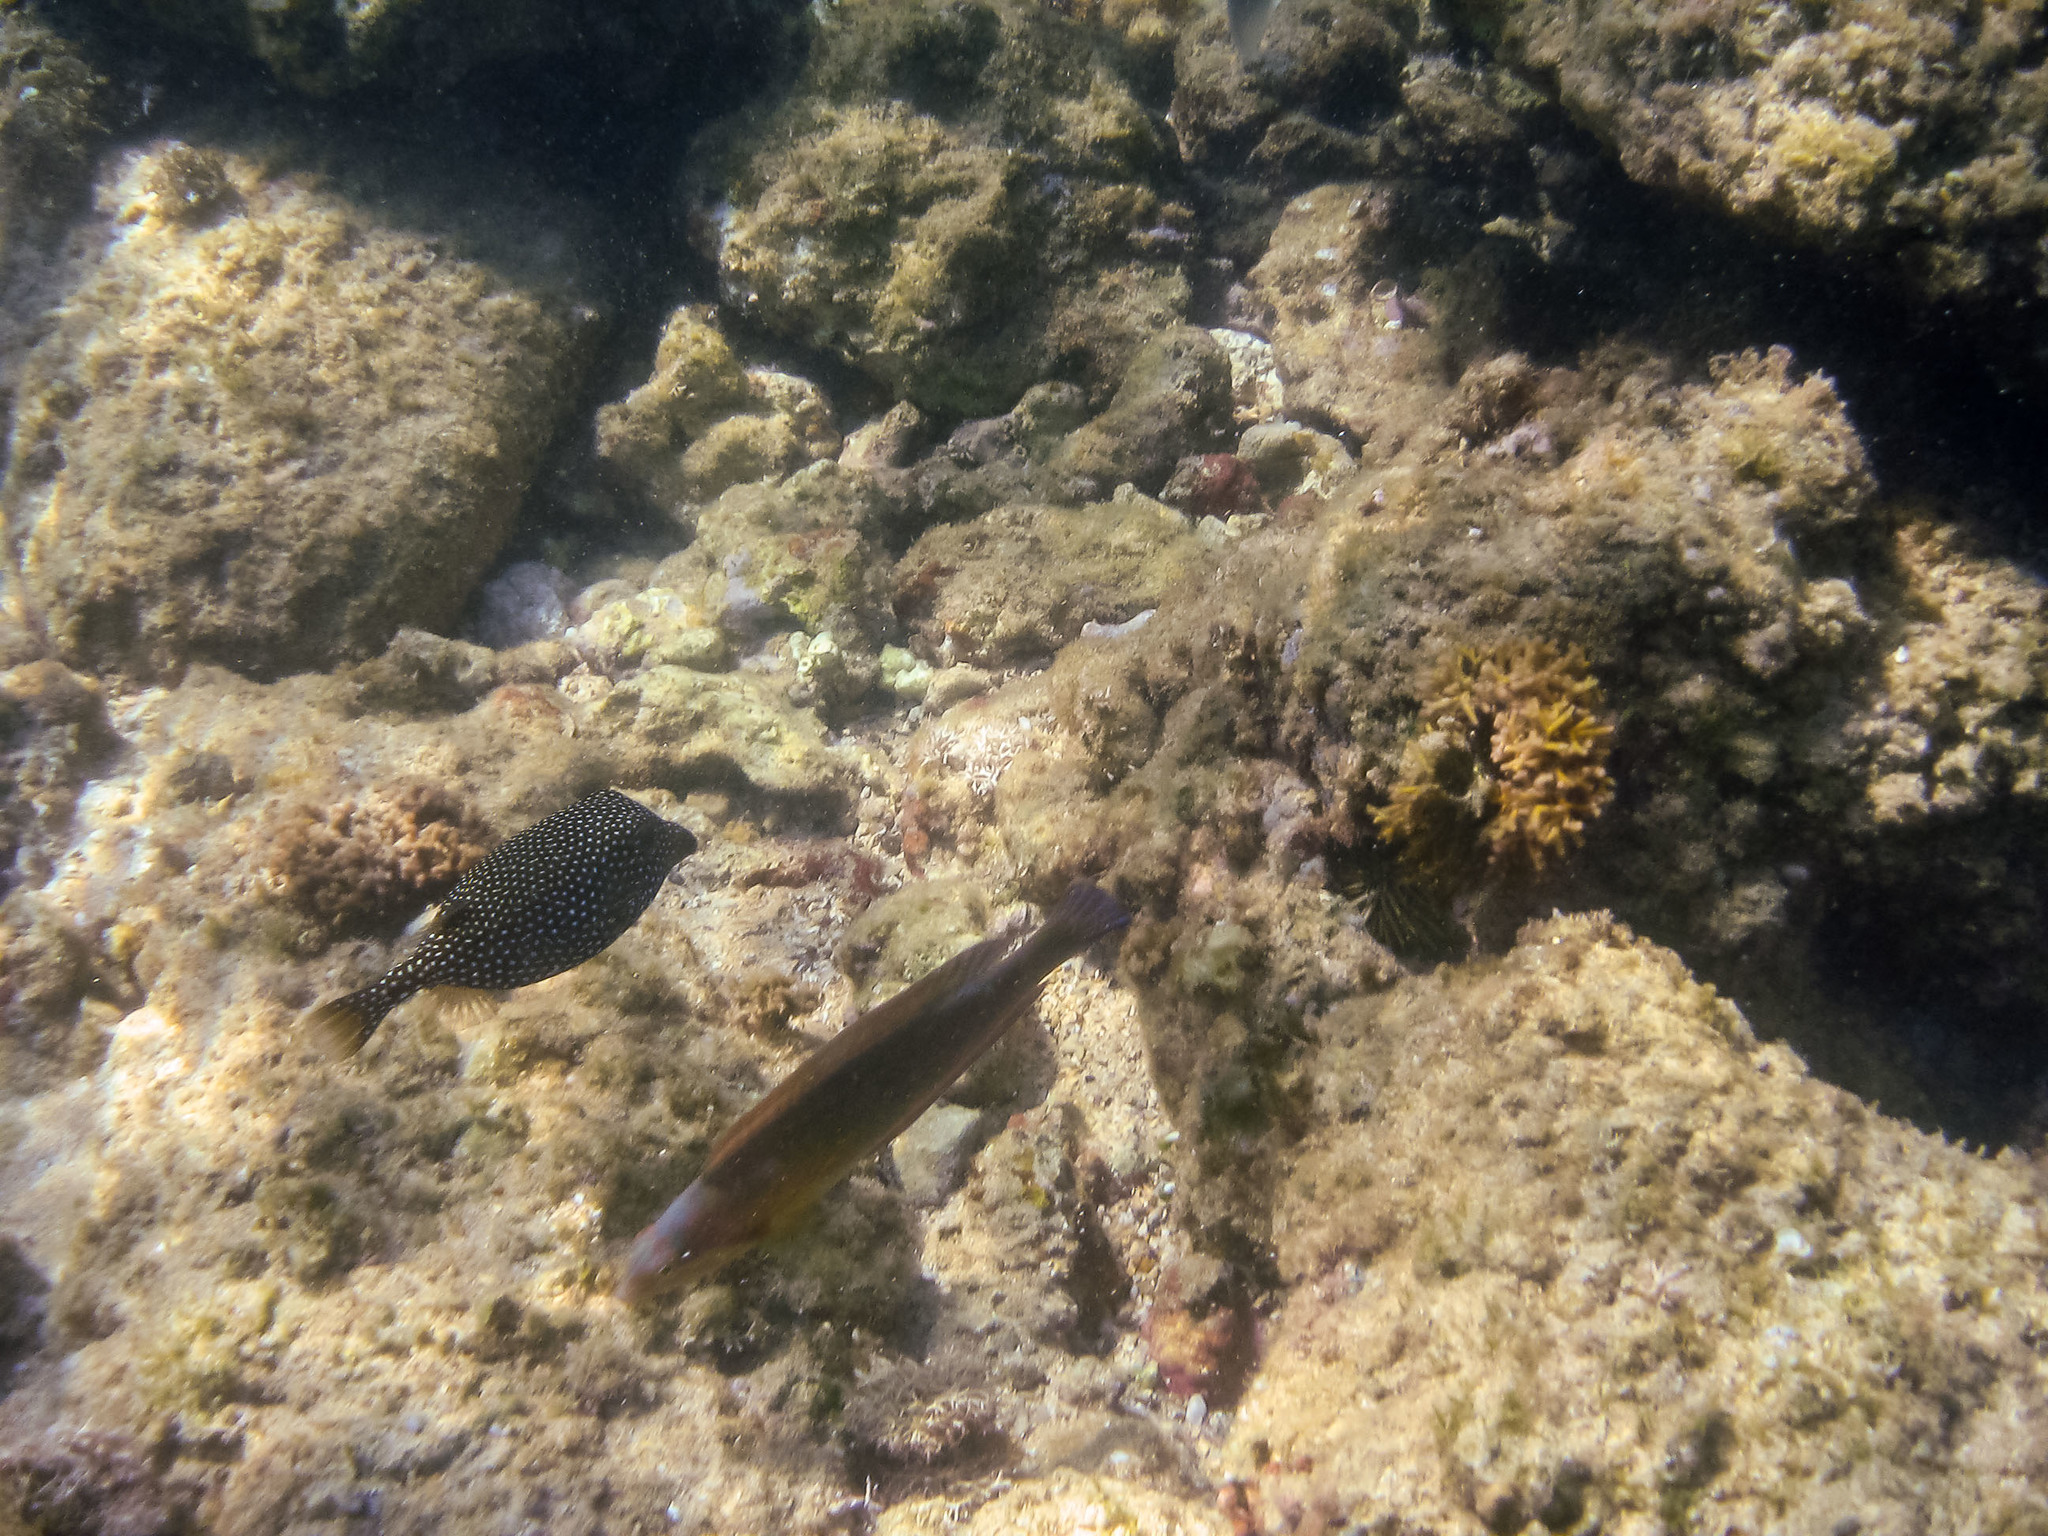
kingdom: Animalia
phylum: Chordata
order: Tetraodontiformes
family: Ostraciidae
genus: Ostracion
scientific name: Ostracion meleagris
